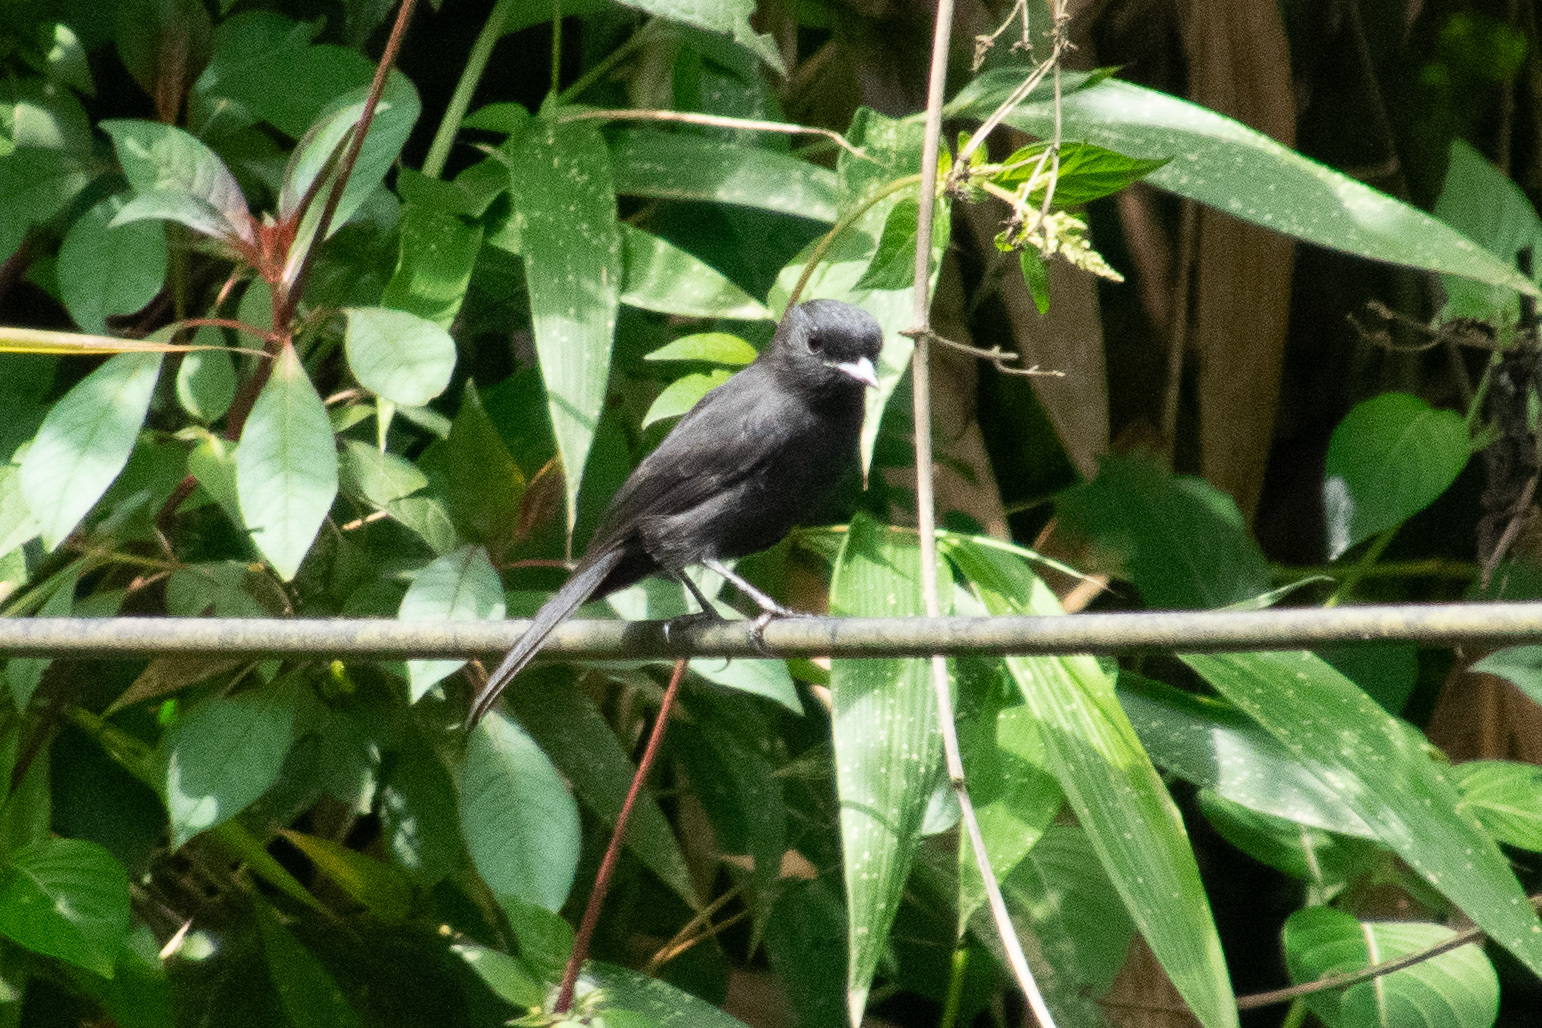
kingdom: Animalia
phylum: Chordata
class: Aves
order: Passeriformes
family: Tyrannidae
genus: Knipolegus
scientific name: Knipolegus aterrimus
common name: White-winged black tyrant
